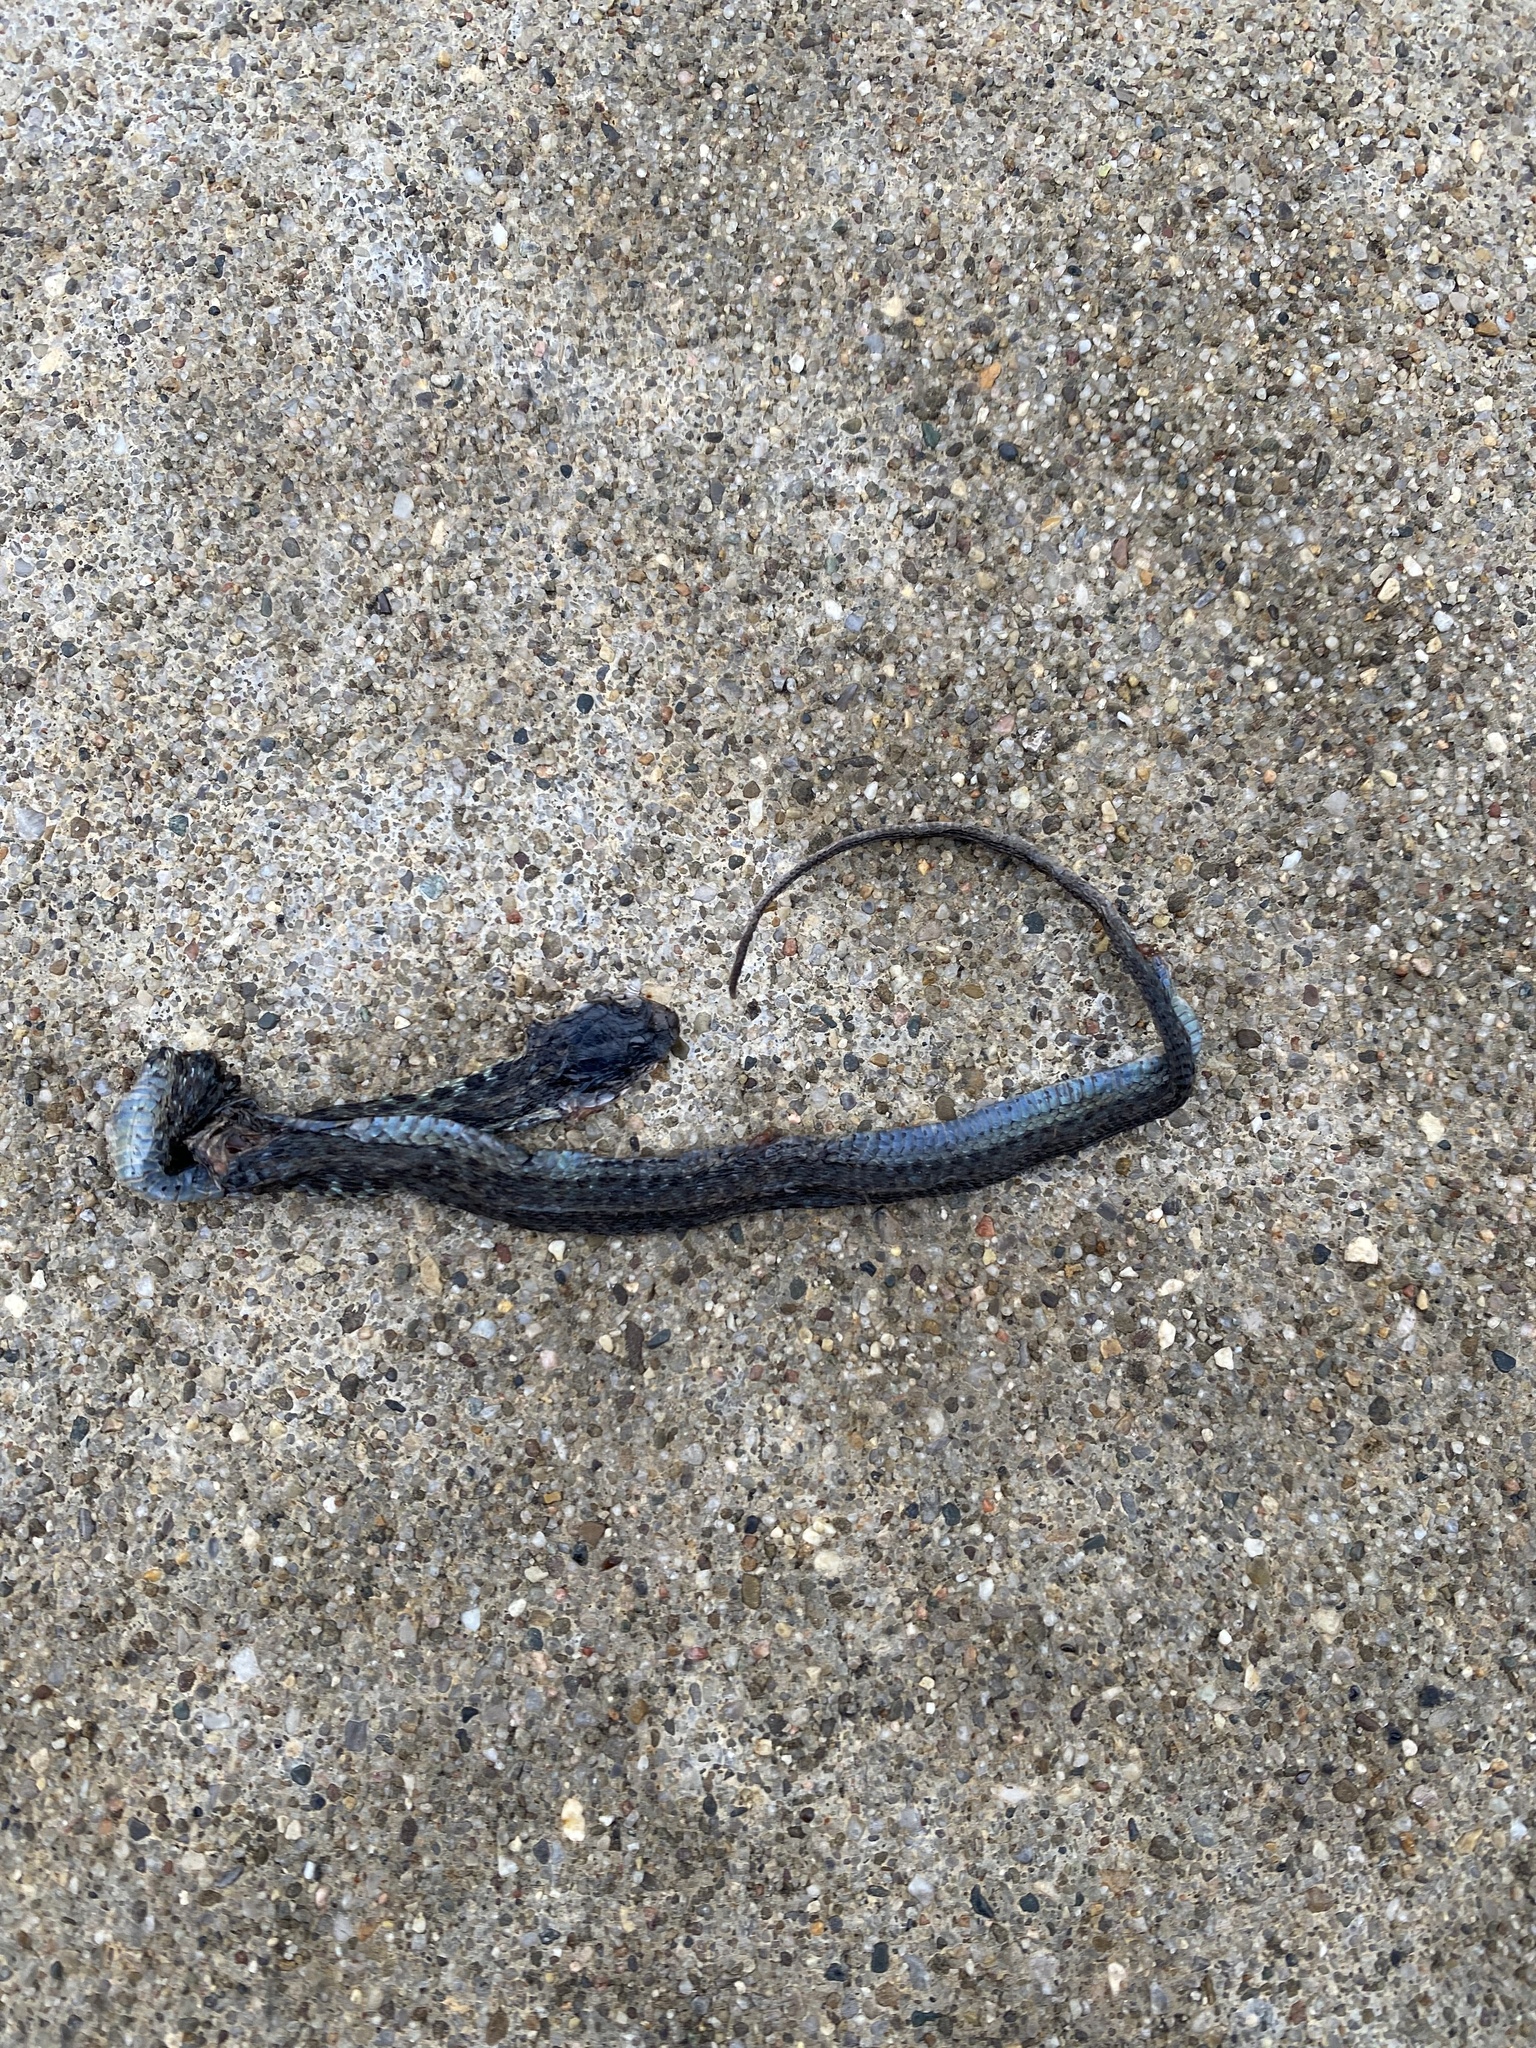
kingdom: Animalia
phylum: Chordata
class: Squamata
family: Colubridae
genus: Thamnophis
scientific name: Thamnophis sirtalis
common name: Common garter snake
